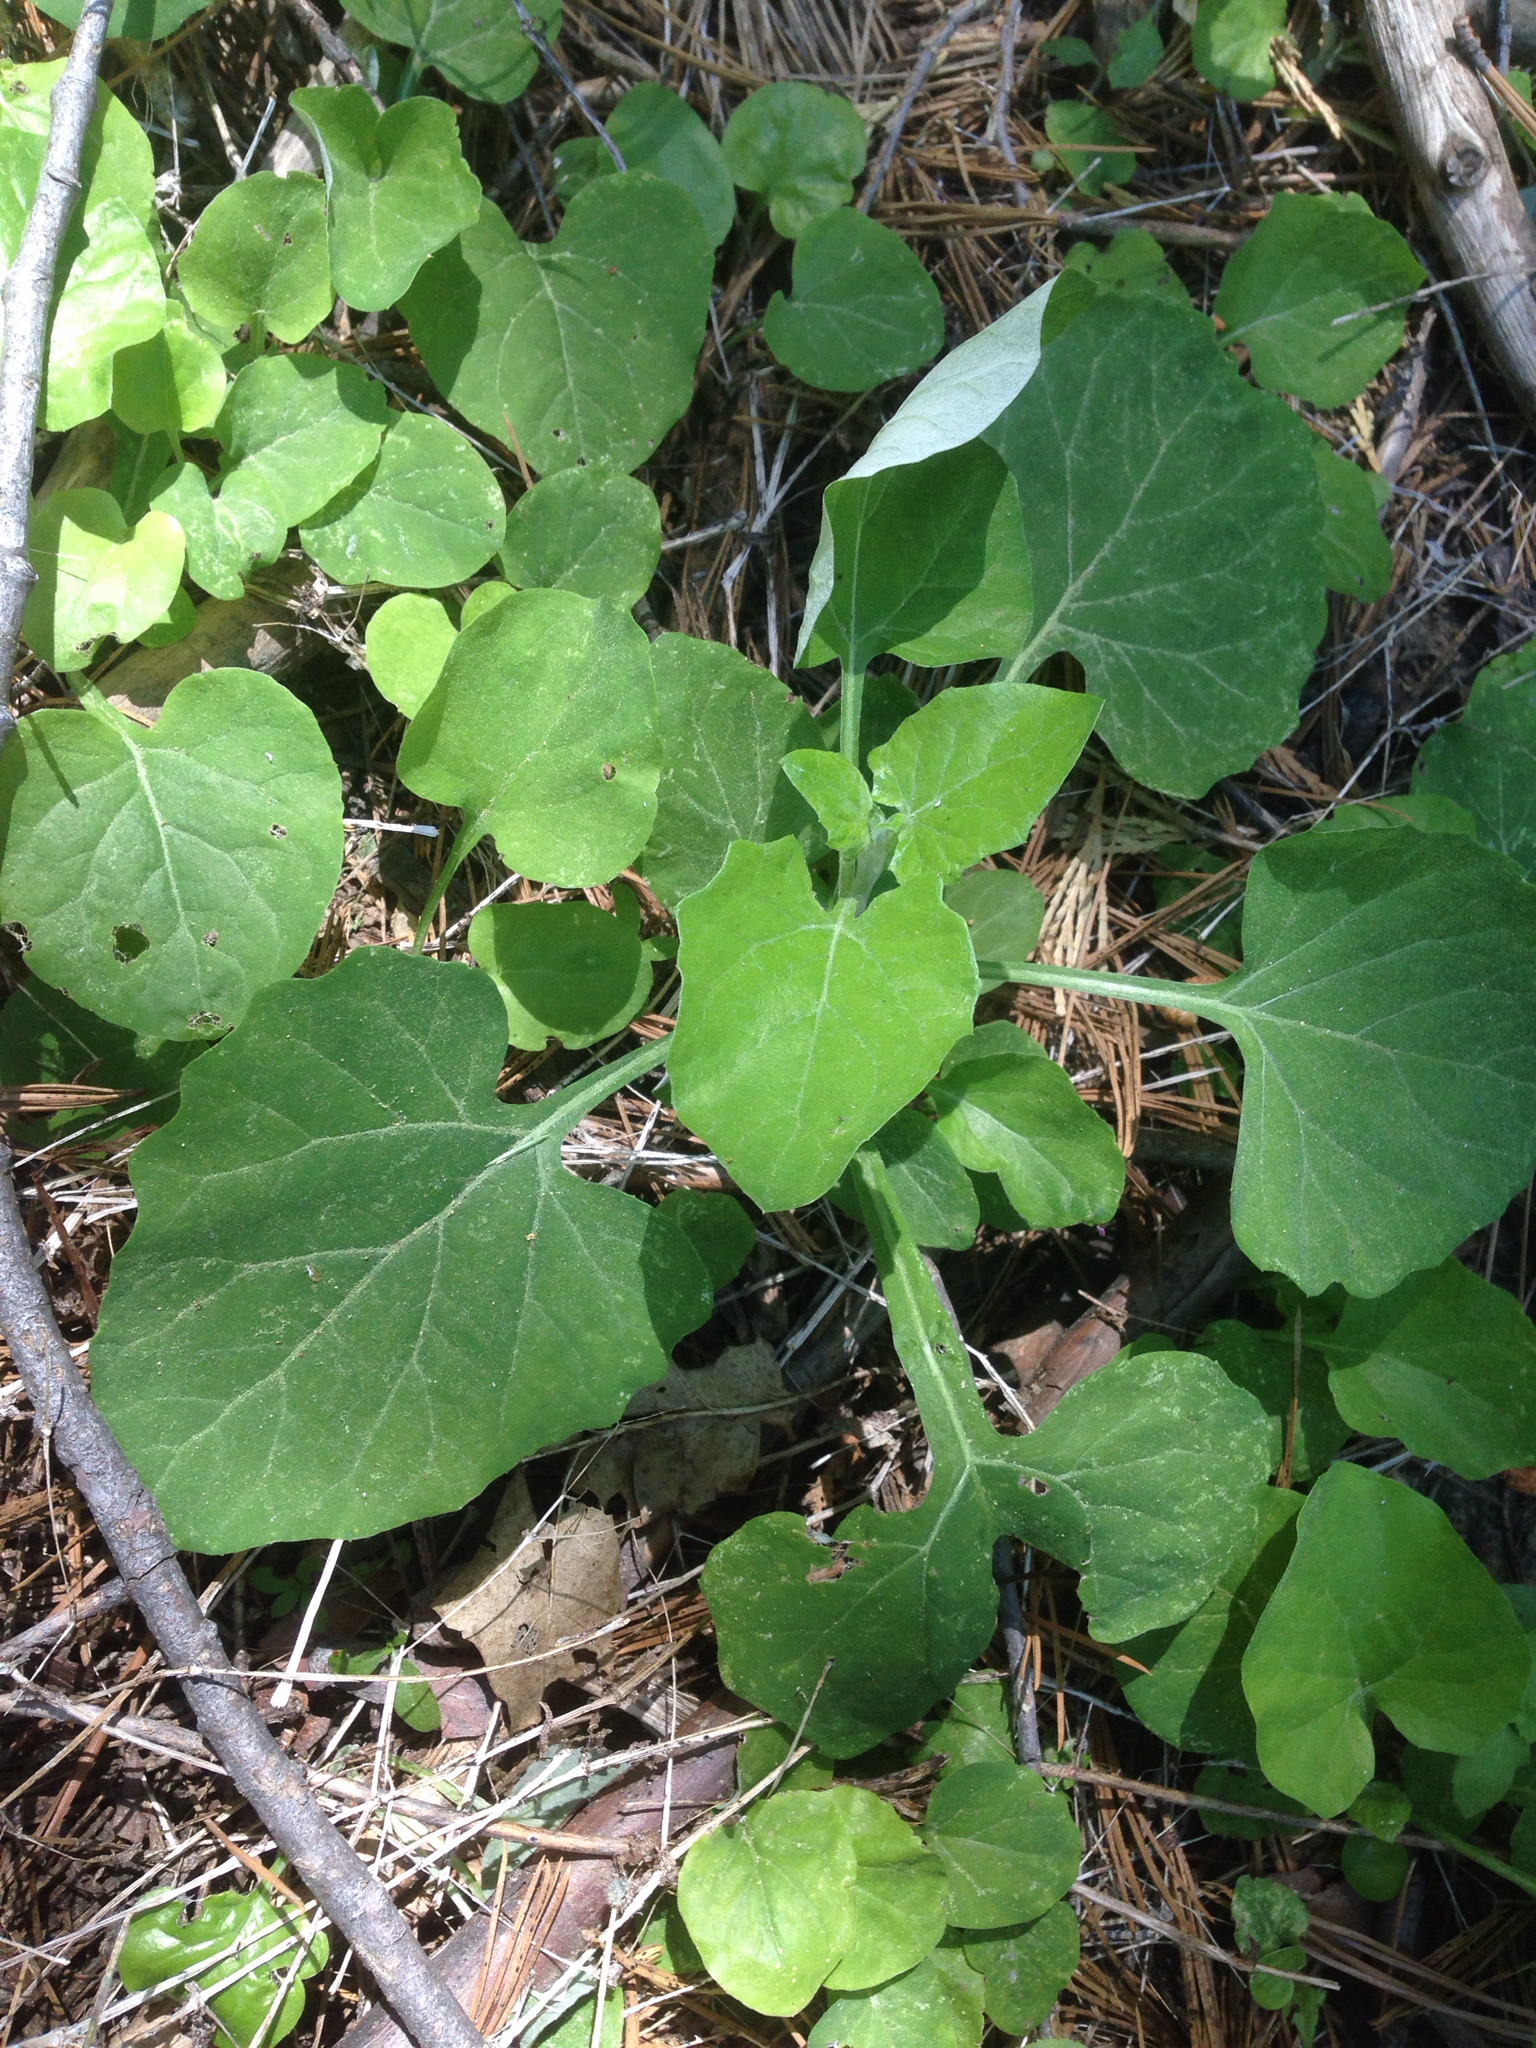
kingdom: Plantae
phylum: Tracheophyta
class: Magnoliopsida
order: Asterales
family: Asteraceae
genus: Adenocaulon
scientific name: Adenocaulon bicolor
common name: Trailplant
